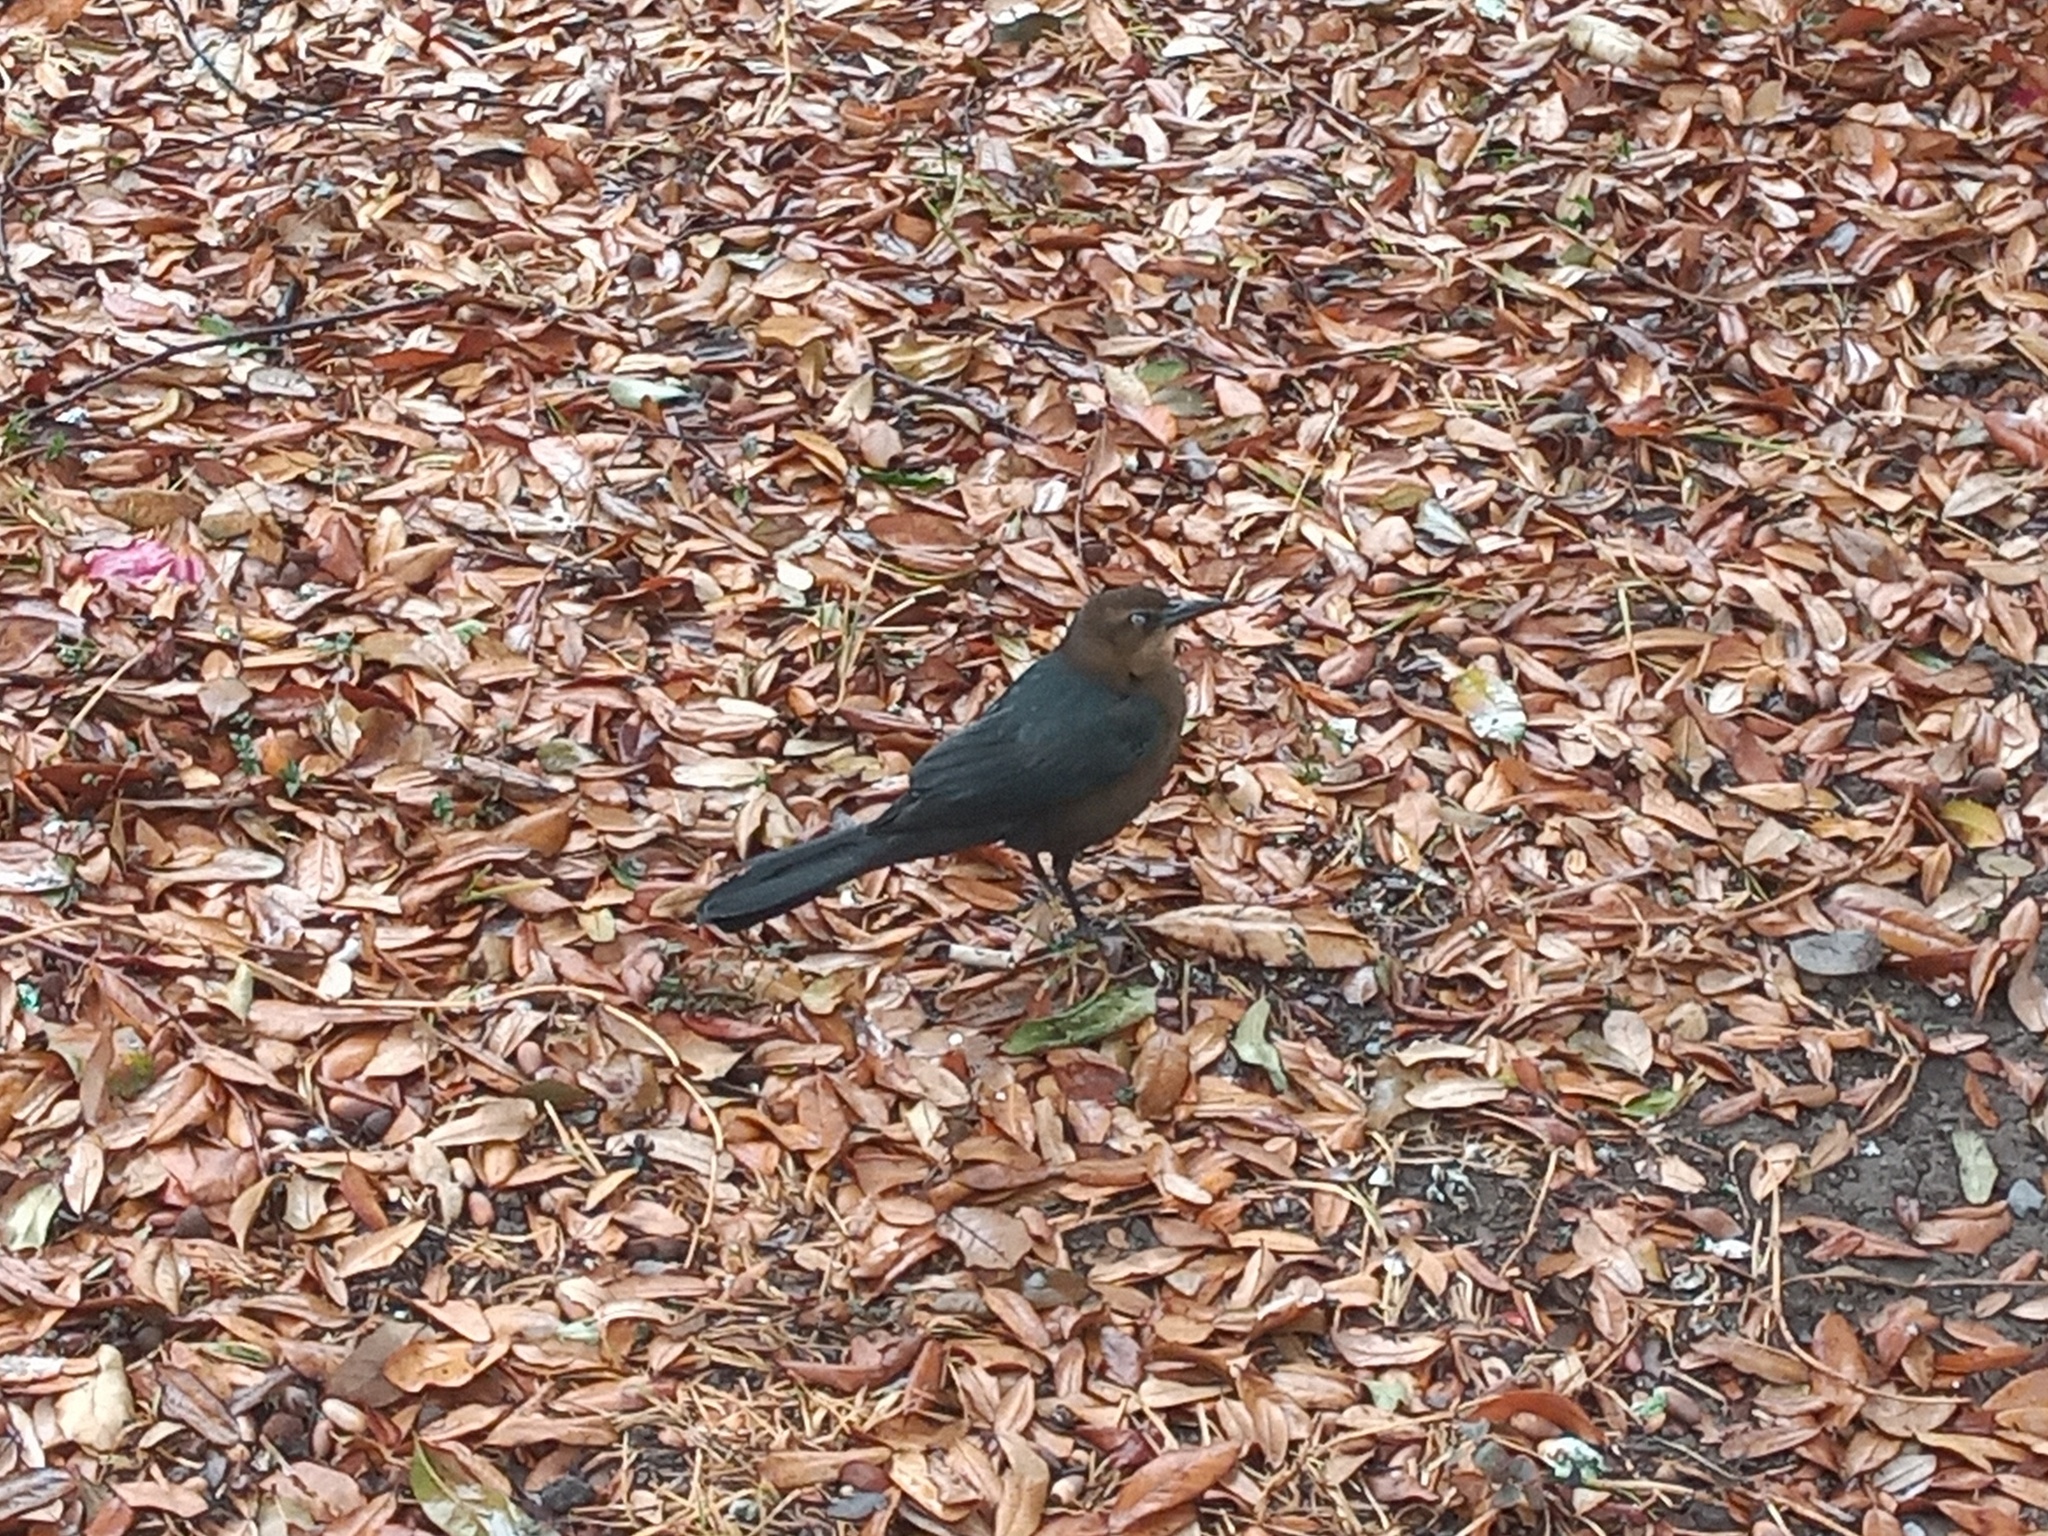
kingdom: Animalia
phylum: Chordata
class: Aves
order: Passeriformes
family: Icteridae
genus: Quiscalus
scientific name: Quiscalus mexicanus
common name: Great-tailed grackle
